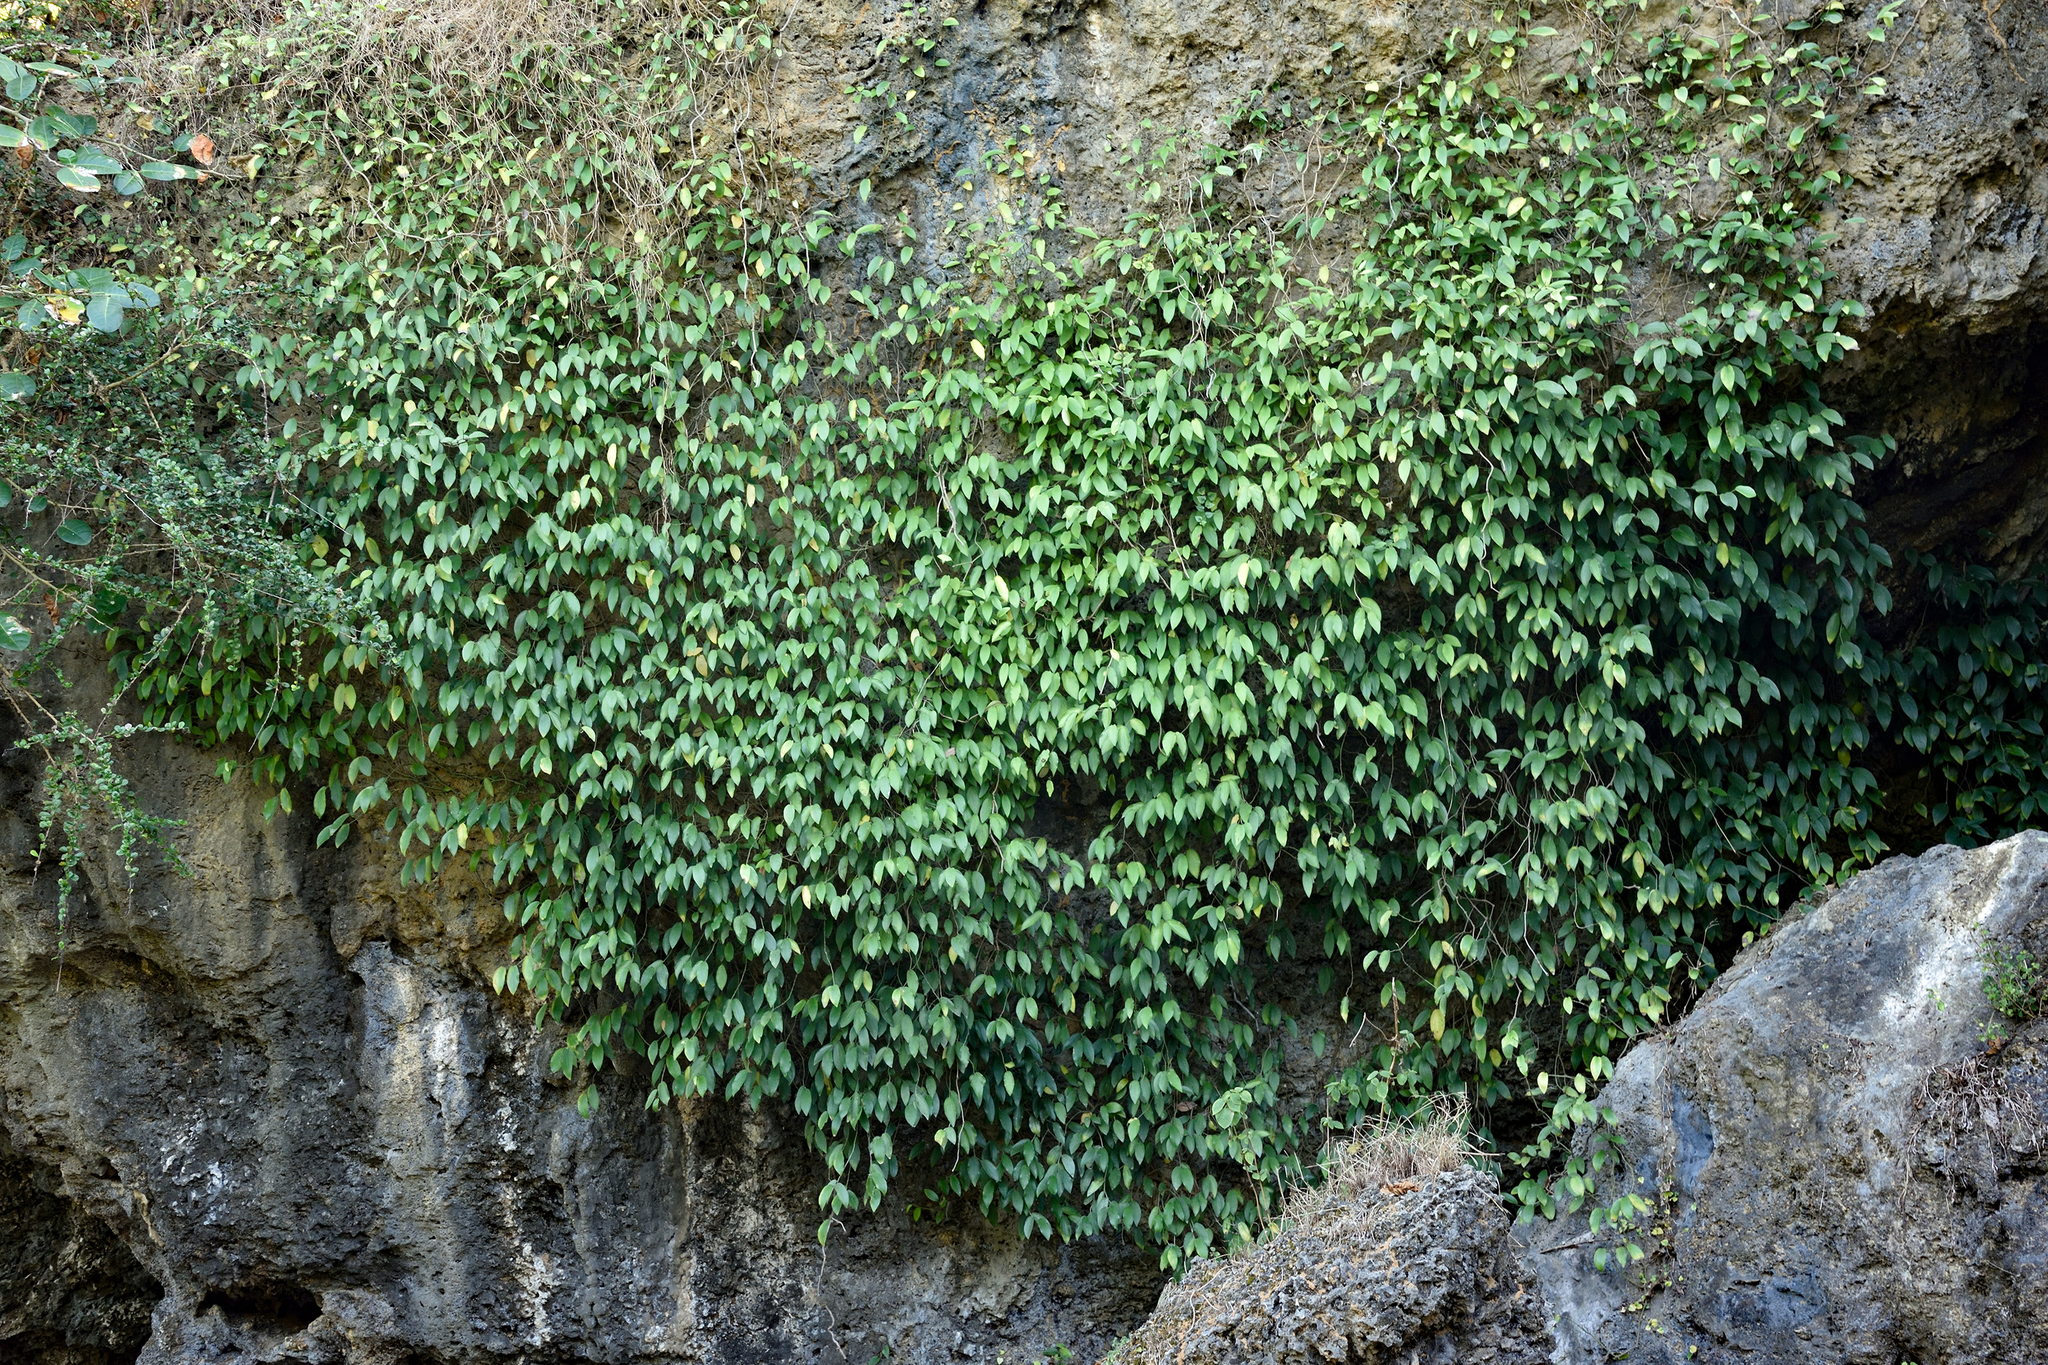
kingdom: Plantae
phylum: Tracheophyta
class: Magnoliopsida
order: Piperales
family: Piperaceae
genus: Piper
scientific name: Piper kadsura
